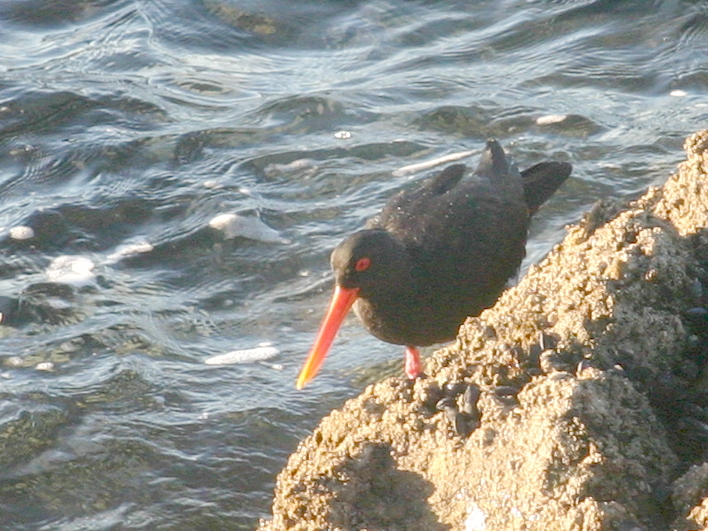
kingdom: Animalia
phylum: Chordata
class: Aves
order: Charadriiformes
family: Haematopodidae
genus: Haematopus
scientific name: Haematopus unicolor
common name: Variable oystercatcher
